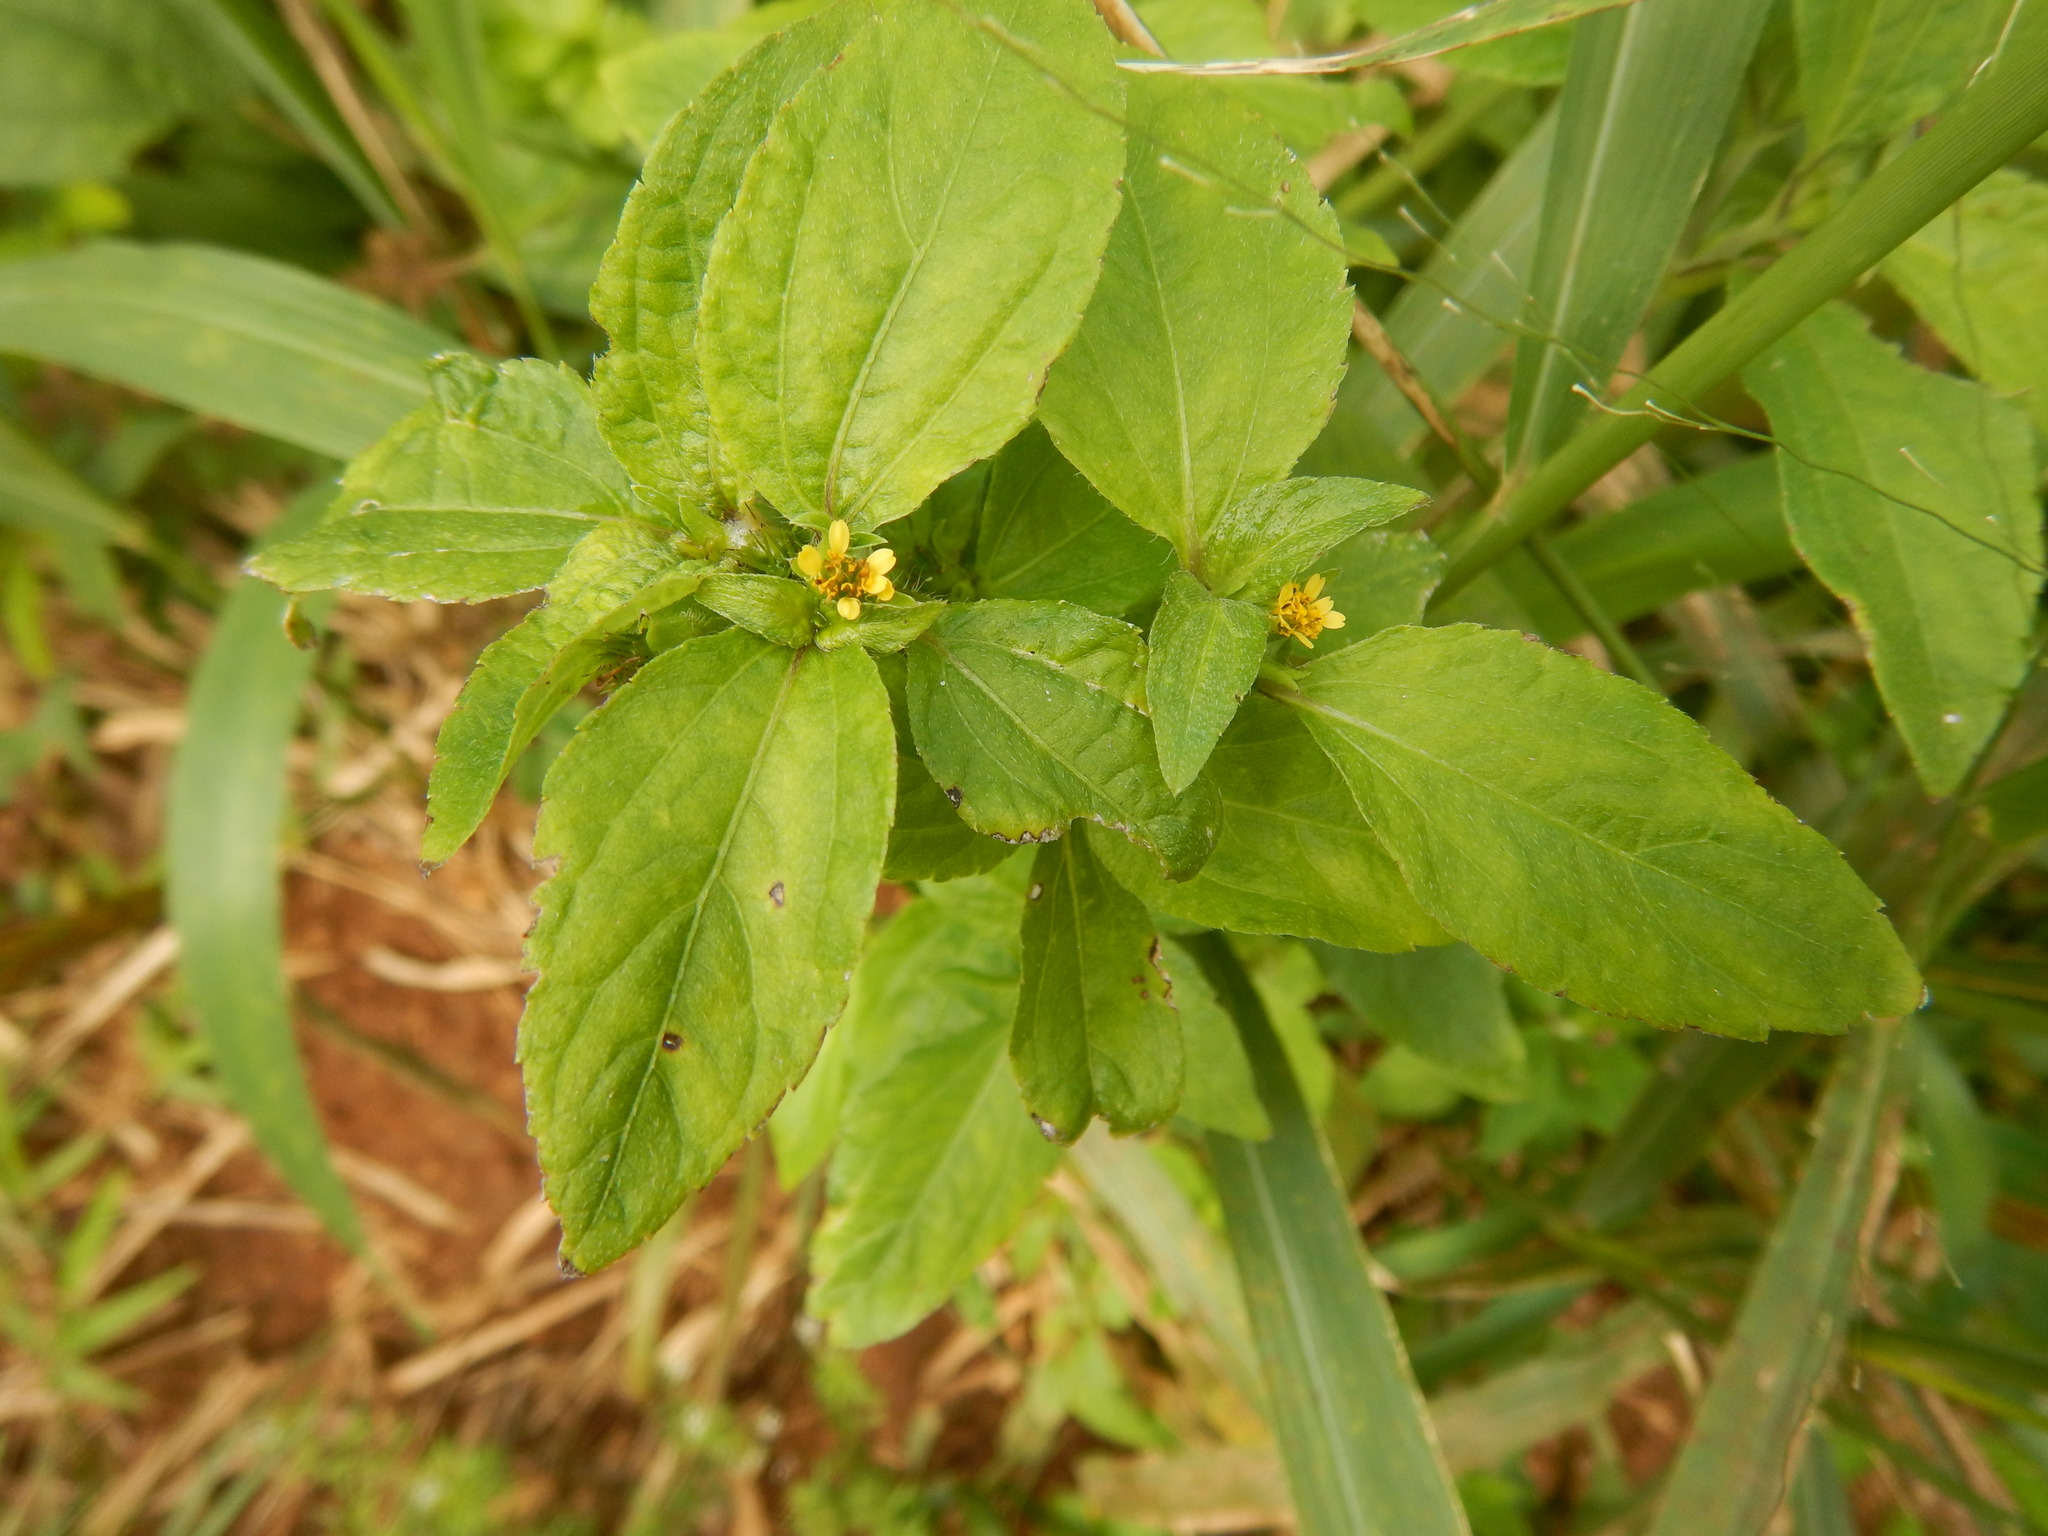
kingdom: Plantae
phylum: Tracheophyta
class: Magnoliopsida
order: Asterales
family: Asteraceae
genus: Synedrella
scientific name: Synedrella nodiflora
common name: Nodeweed
